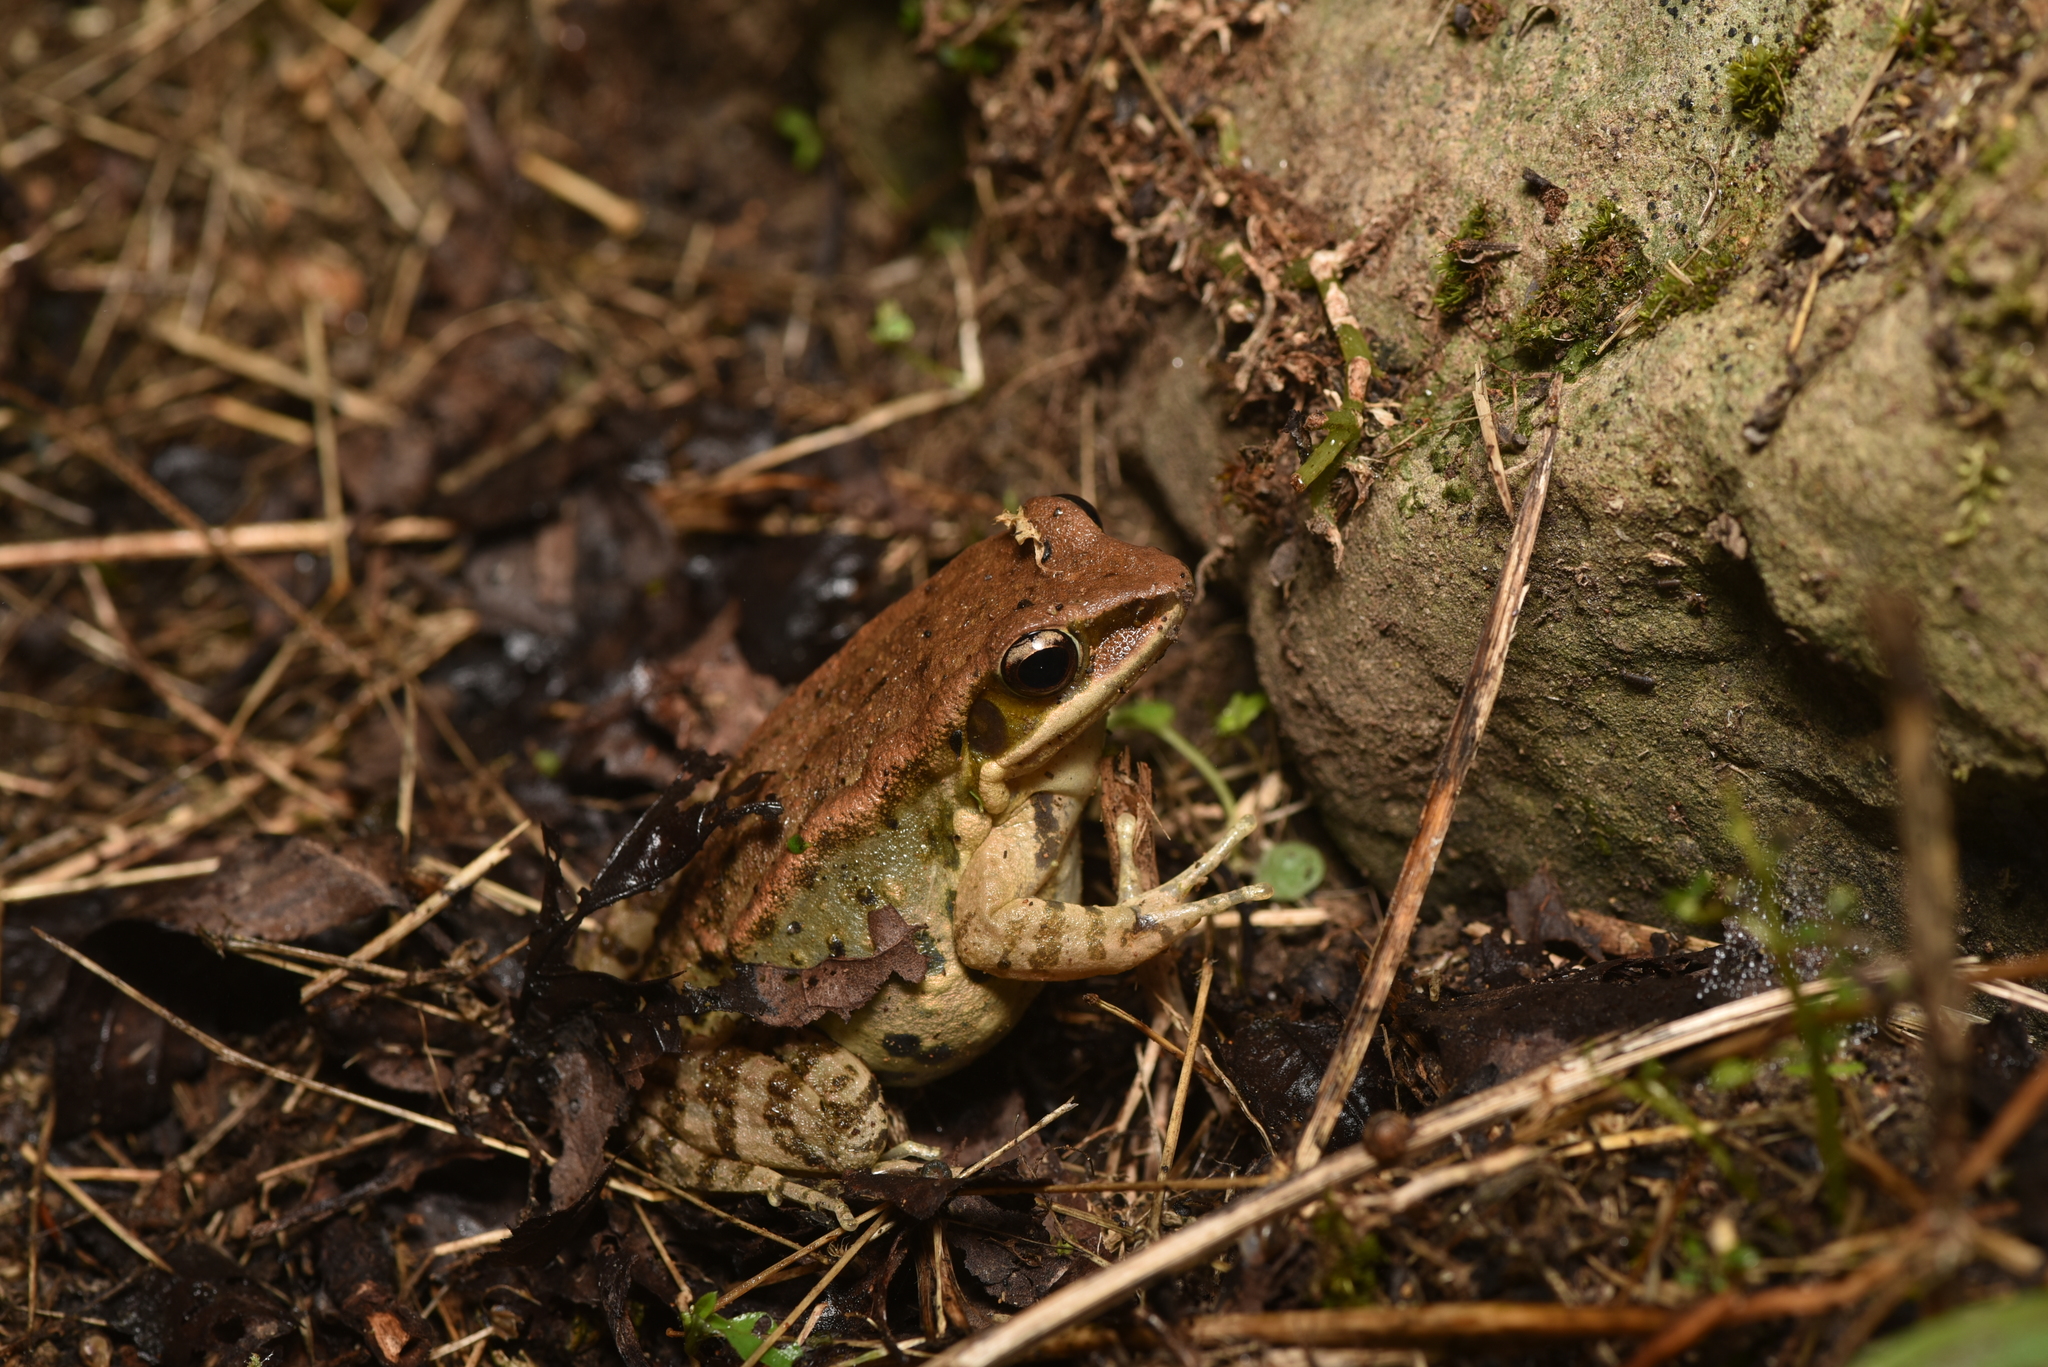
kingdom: Animalia
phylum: Chordata
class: Amphibia
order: Anura
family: Ranidae
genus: Hylarana
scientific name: Hylarana latouchii
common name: Broad-folded frog
